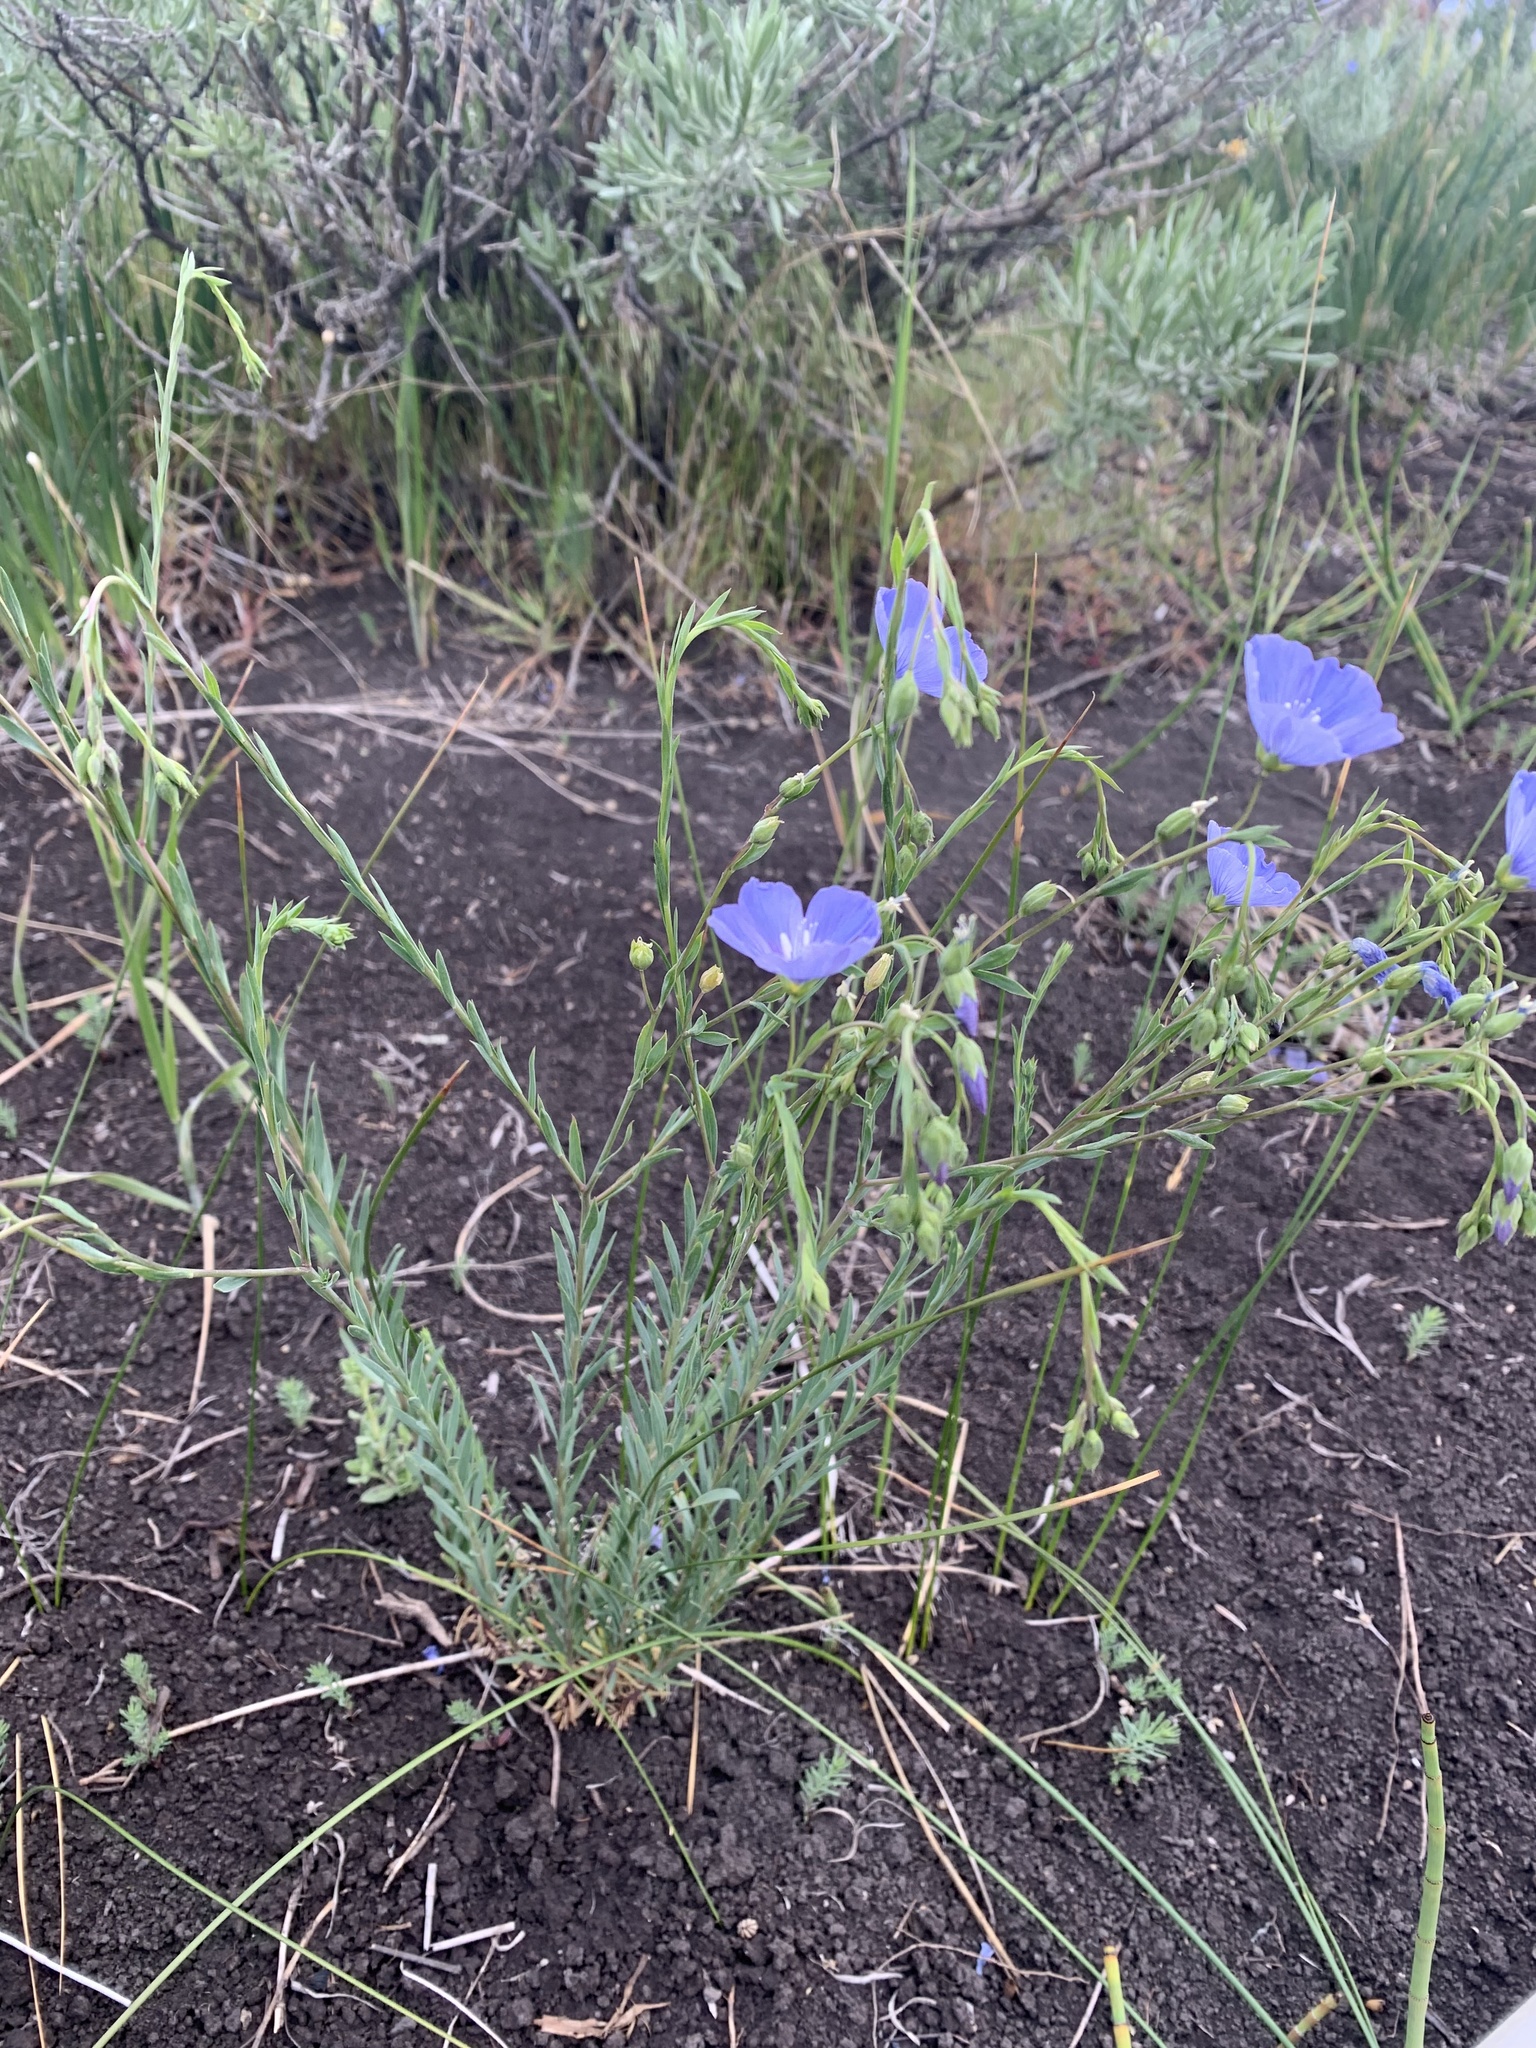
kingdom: Plantae
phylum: Tracheophyta
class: Magnoliopsida
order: Malpighiales
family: Linaceae
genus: Linum
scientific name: Linum lewisii
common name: Prairie flax
